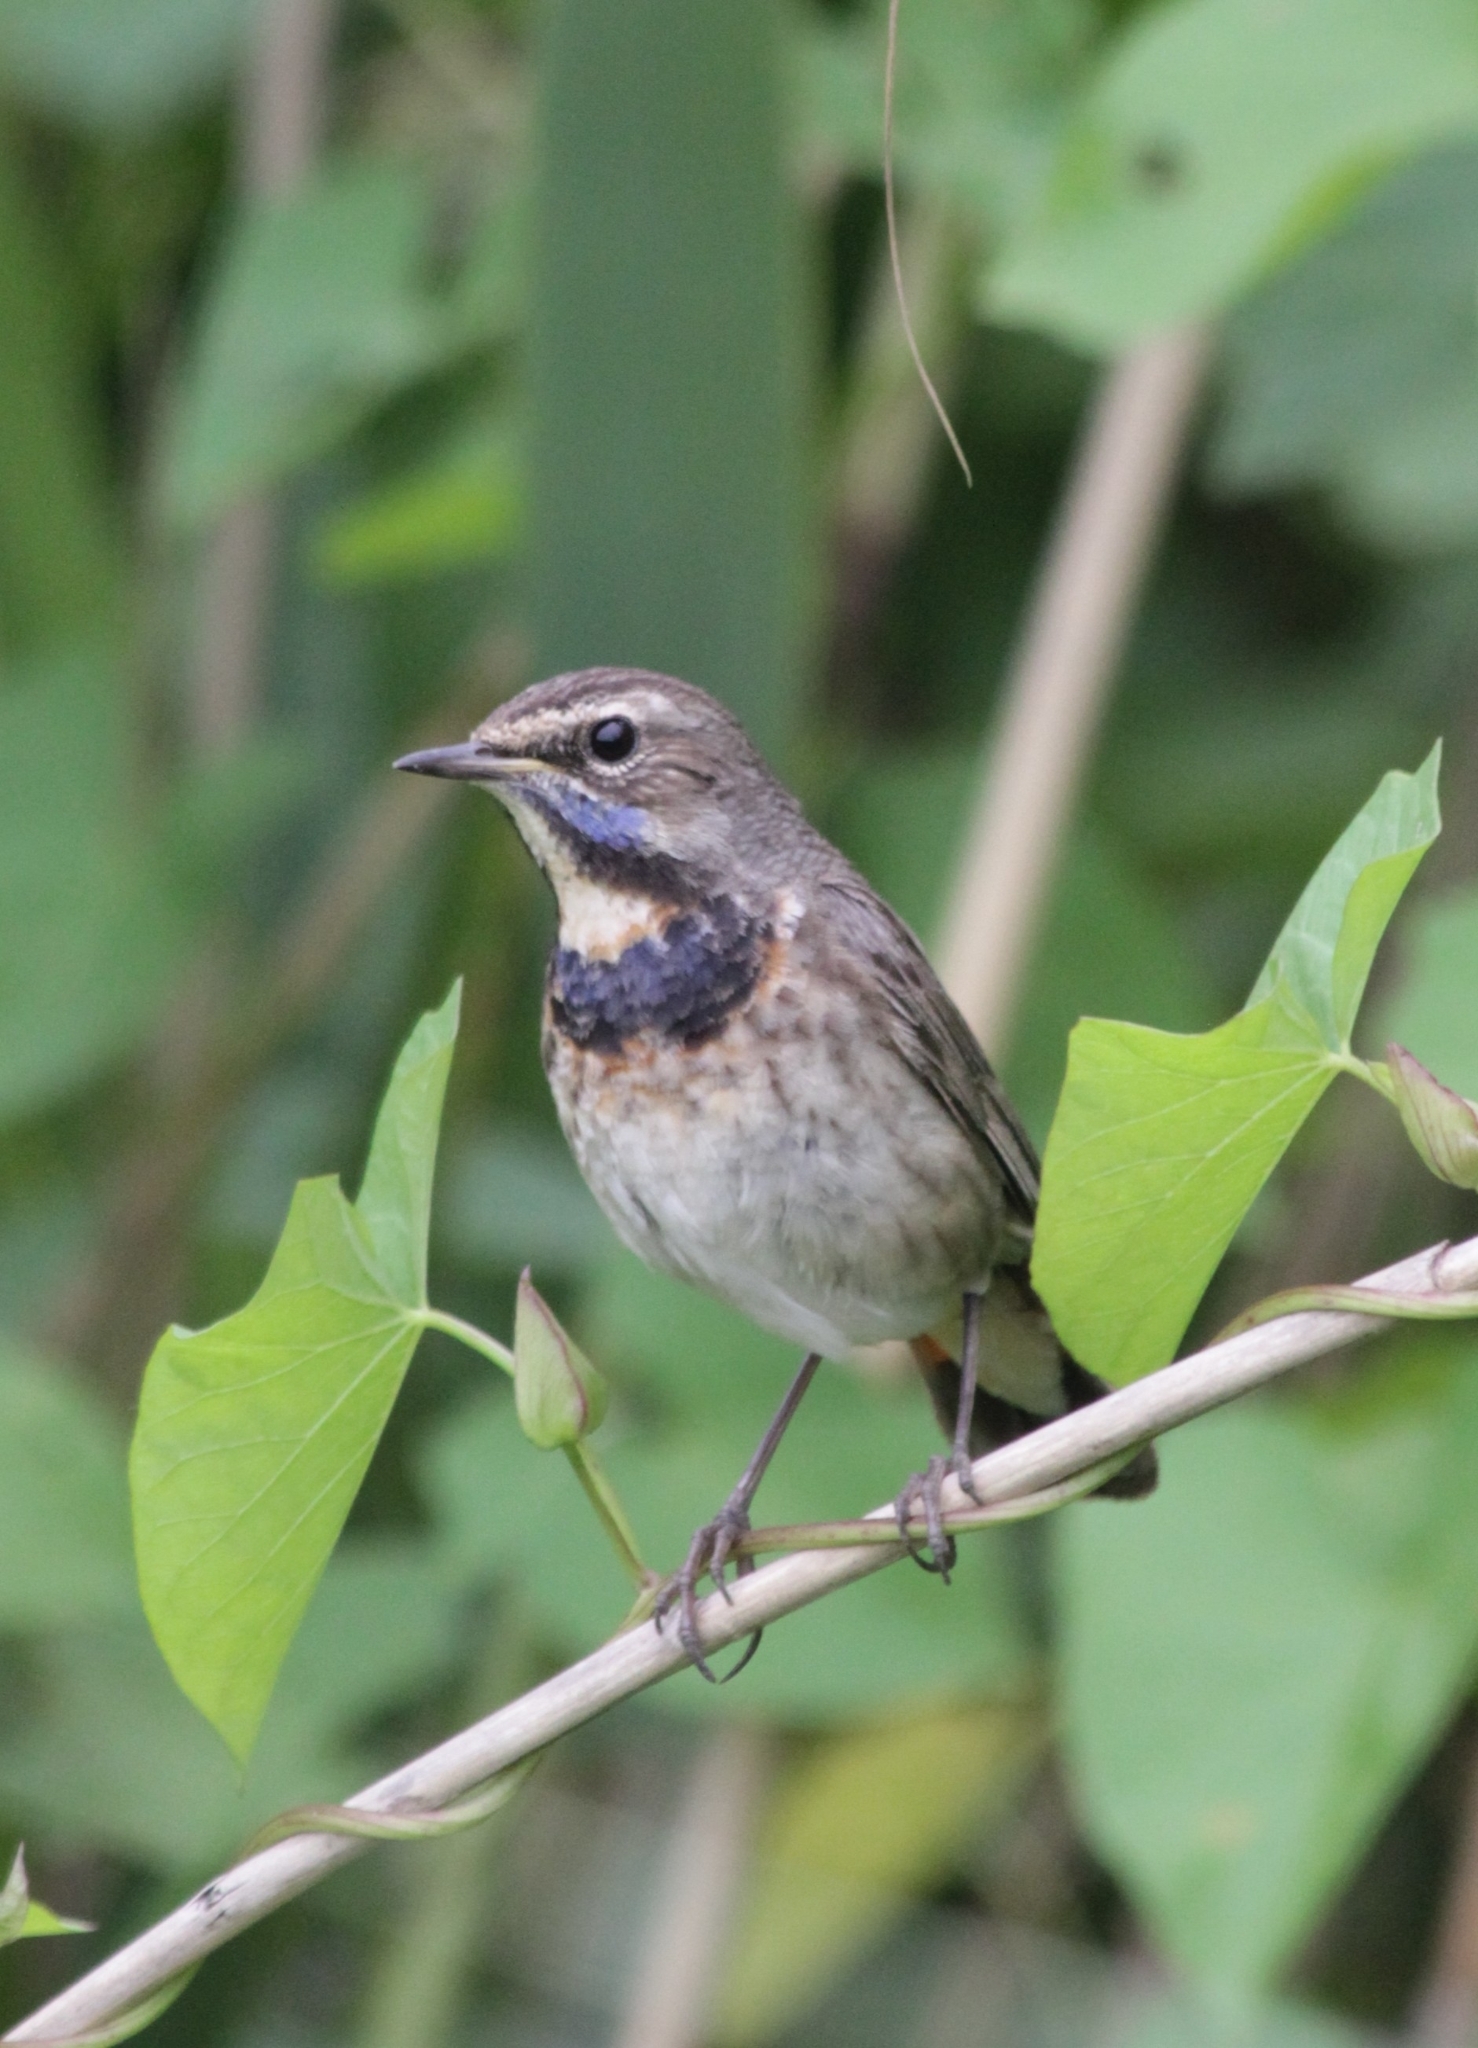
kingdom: Animalia
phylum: Chordata
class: Aves
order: Passeriformes
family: Muscicapidae
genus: Luscinia
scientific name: Luscinia svecica
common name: Bluethroat
